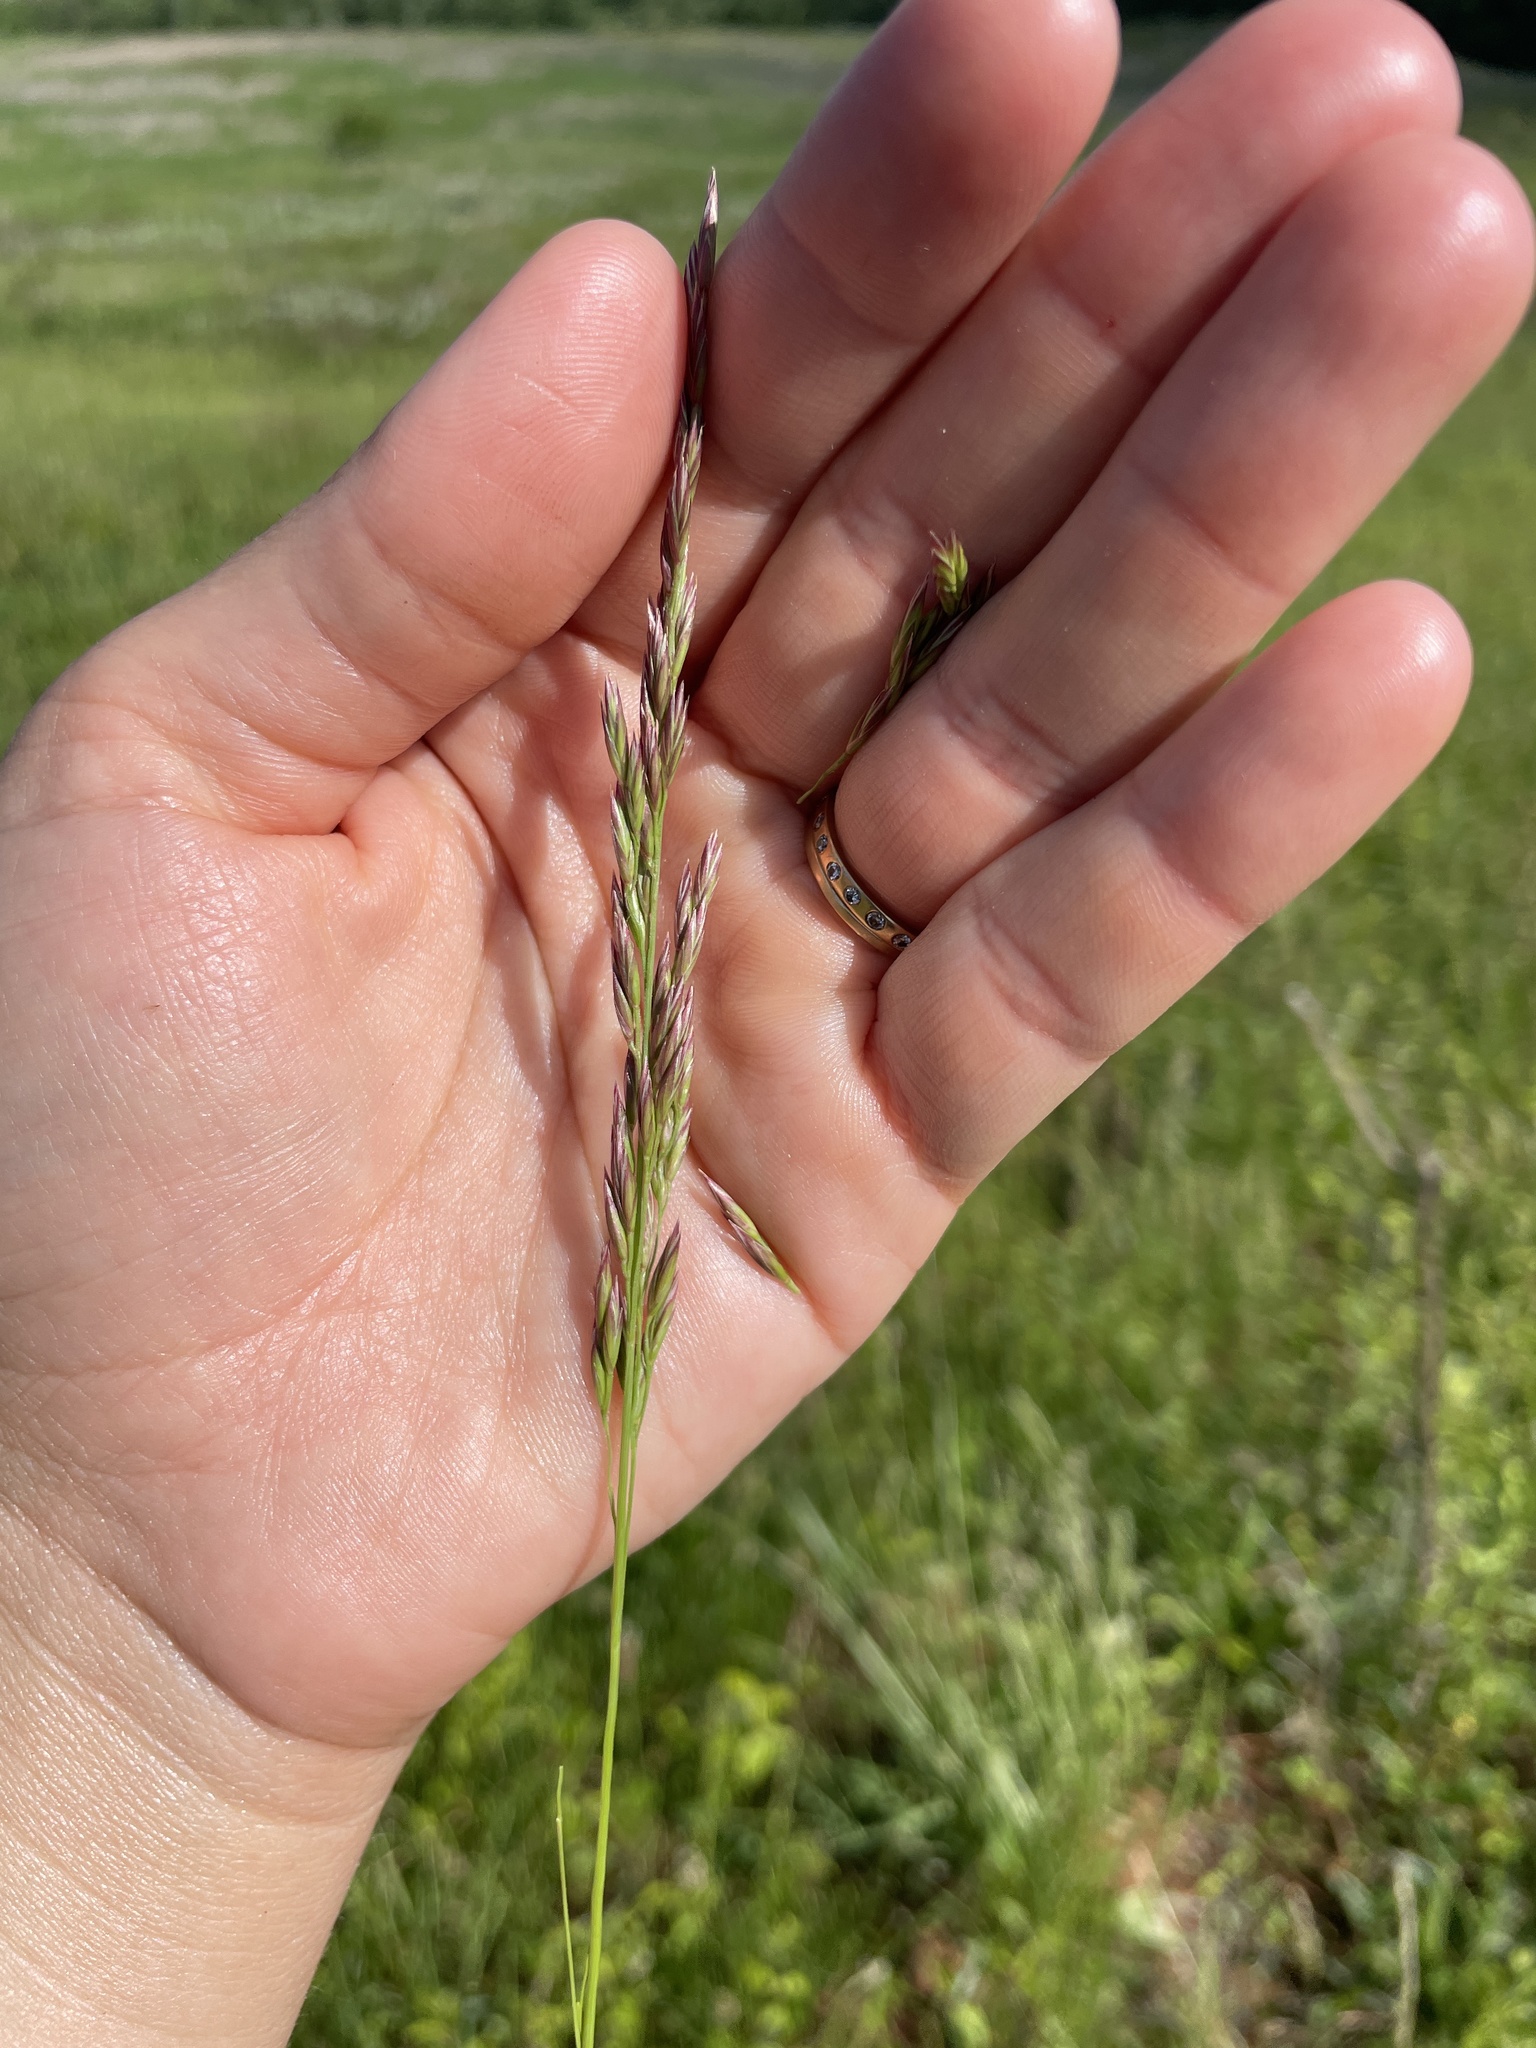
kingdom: Plantae
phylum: Tracheophyta
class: Liliopsida
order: Poales
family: Poaceae
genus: Lolium
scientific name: Lolium arundinaceum
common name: Reed fescue
